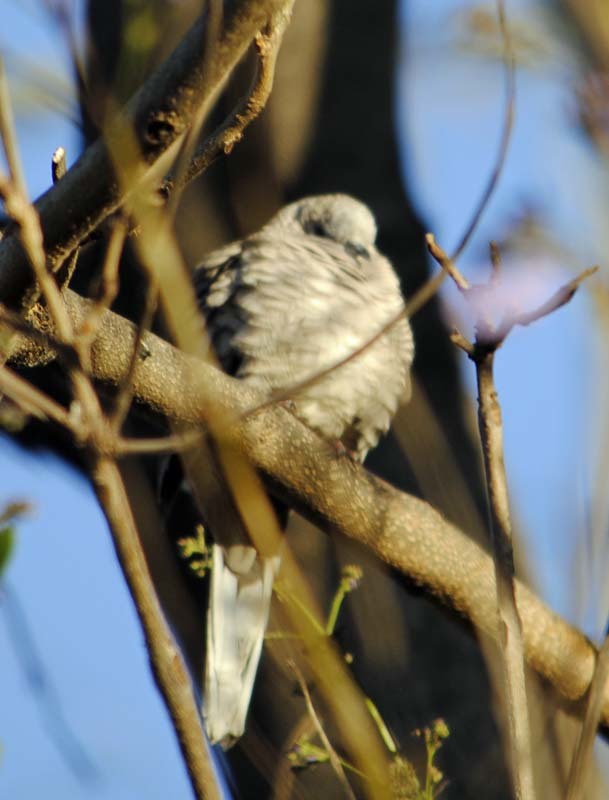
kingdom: Animalia
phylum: Chordata
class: Aves
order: Columbiformes
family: Columbidae
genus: Columbina
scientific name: Columbina inca
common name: Inca dove
